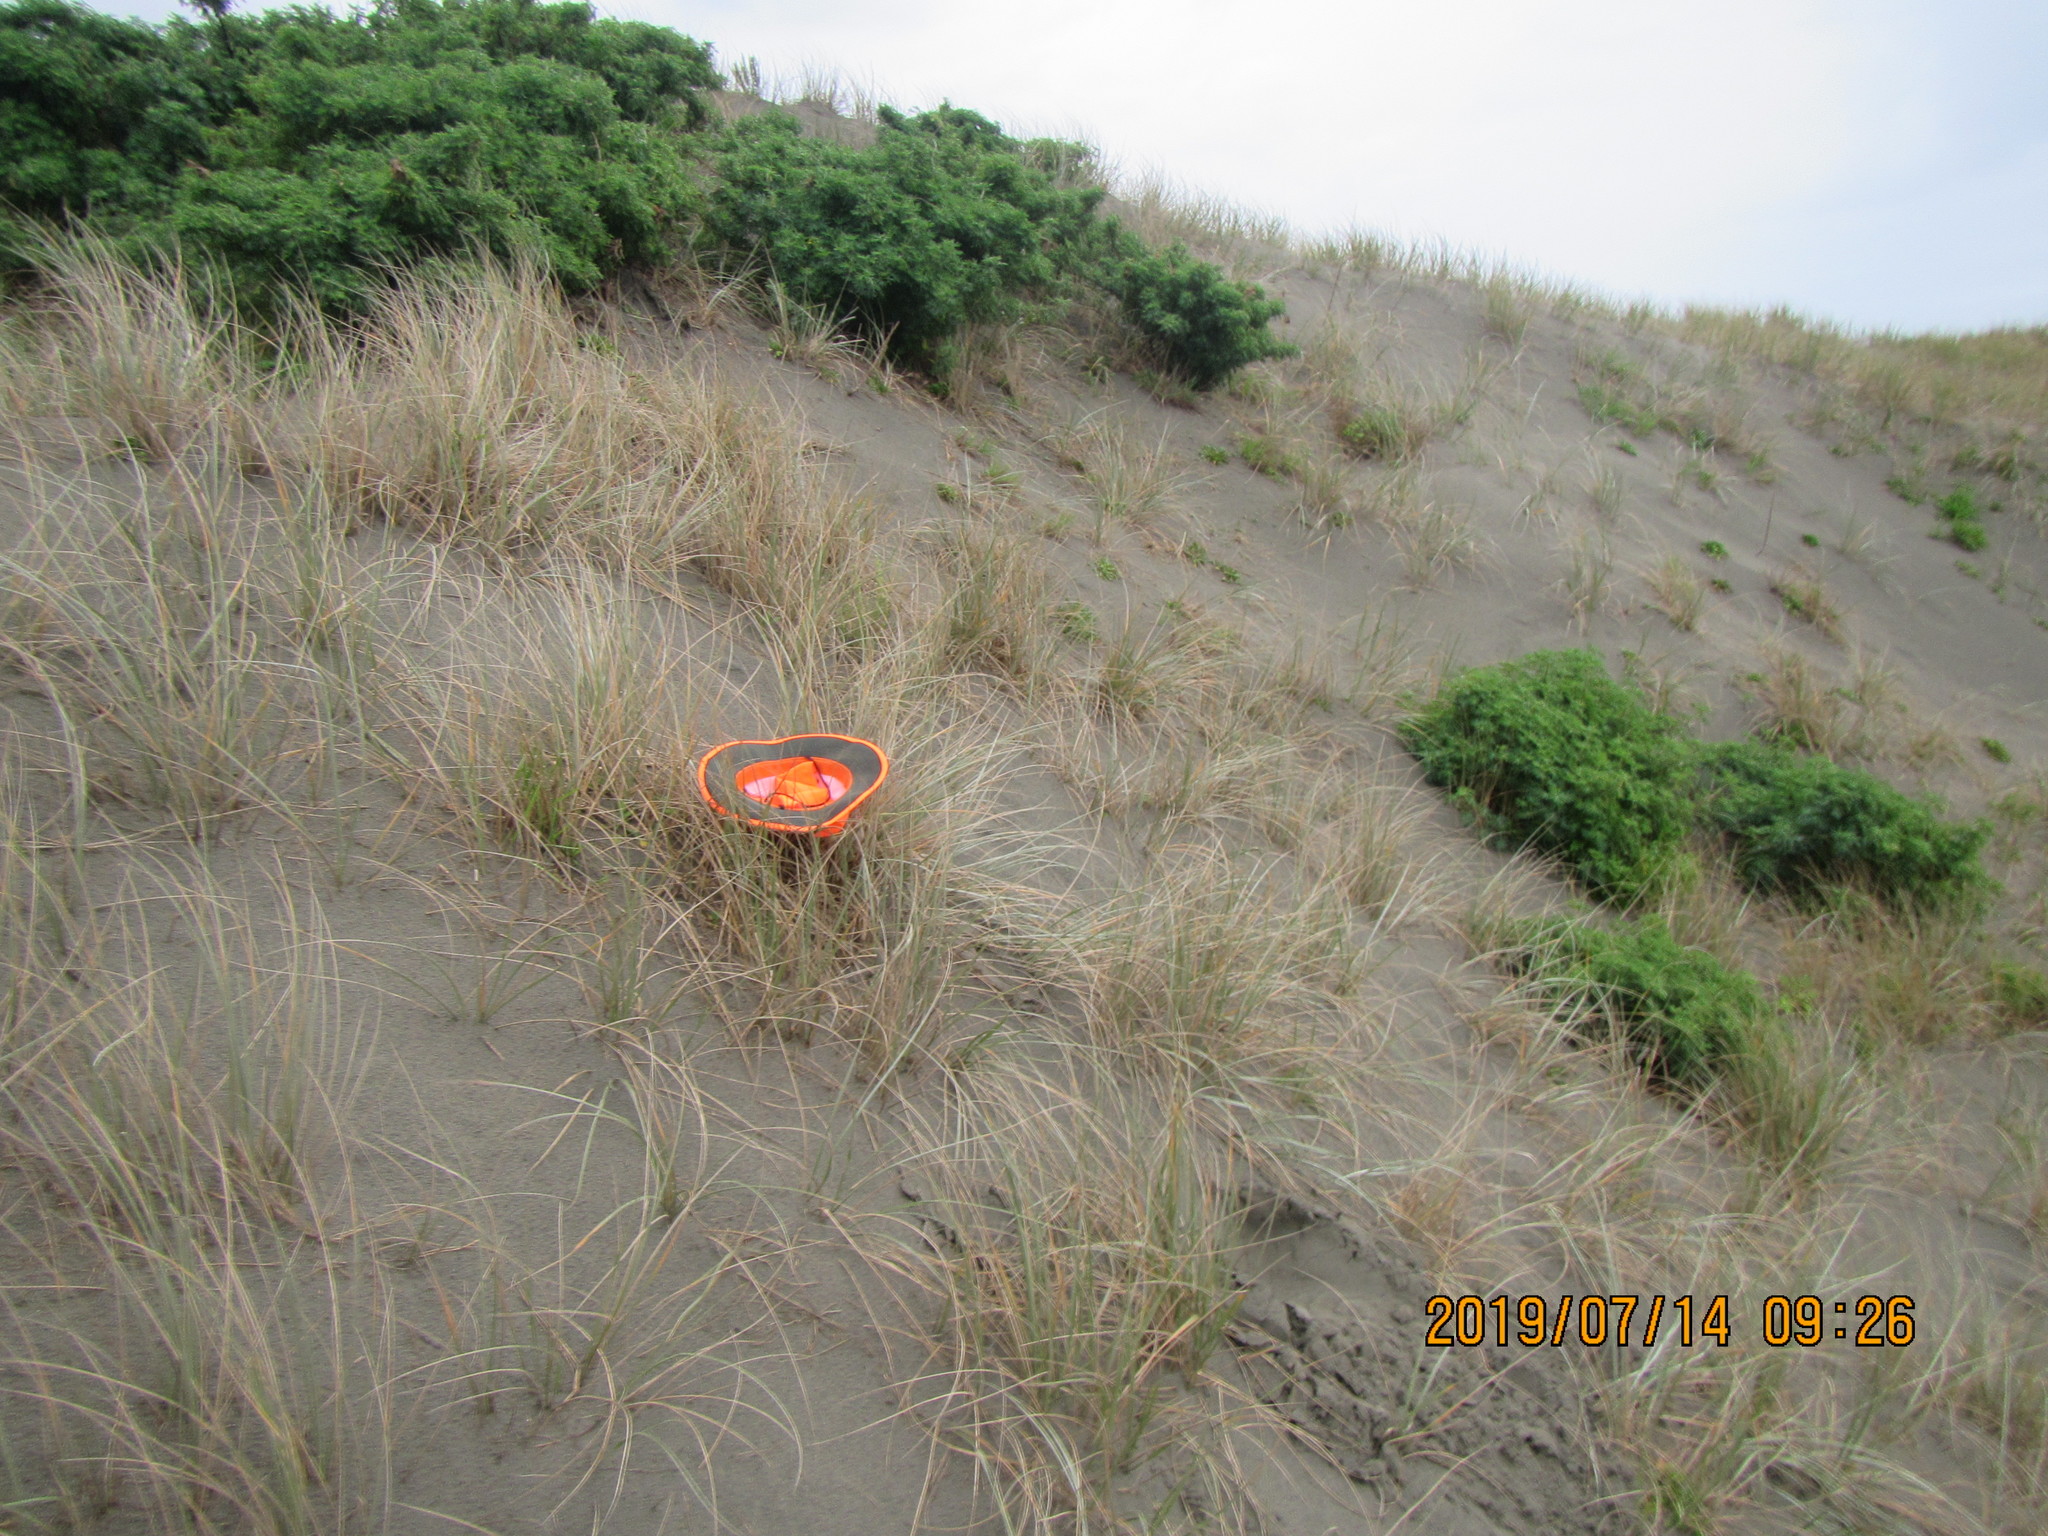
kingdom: Animalia
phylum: Arthropoda
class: Arachnida
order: Araneae
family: Thomisidae
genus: Sidymella
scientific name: Sidymella trapezia
